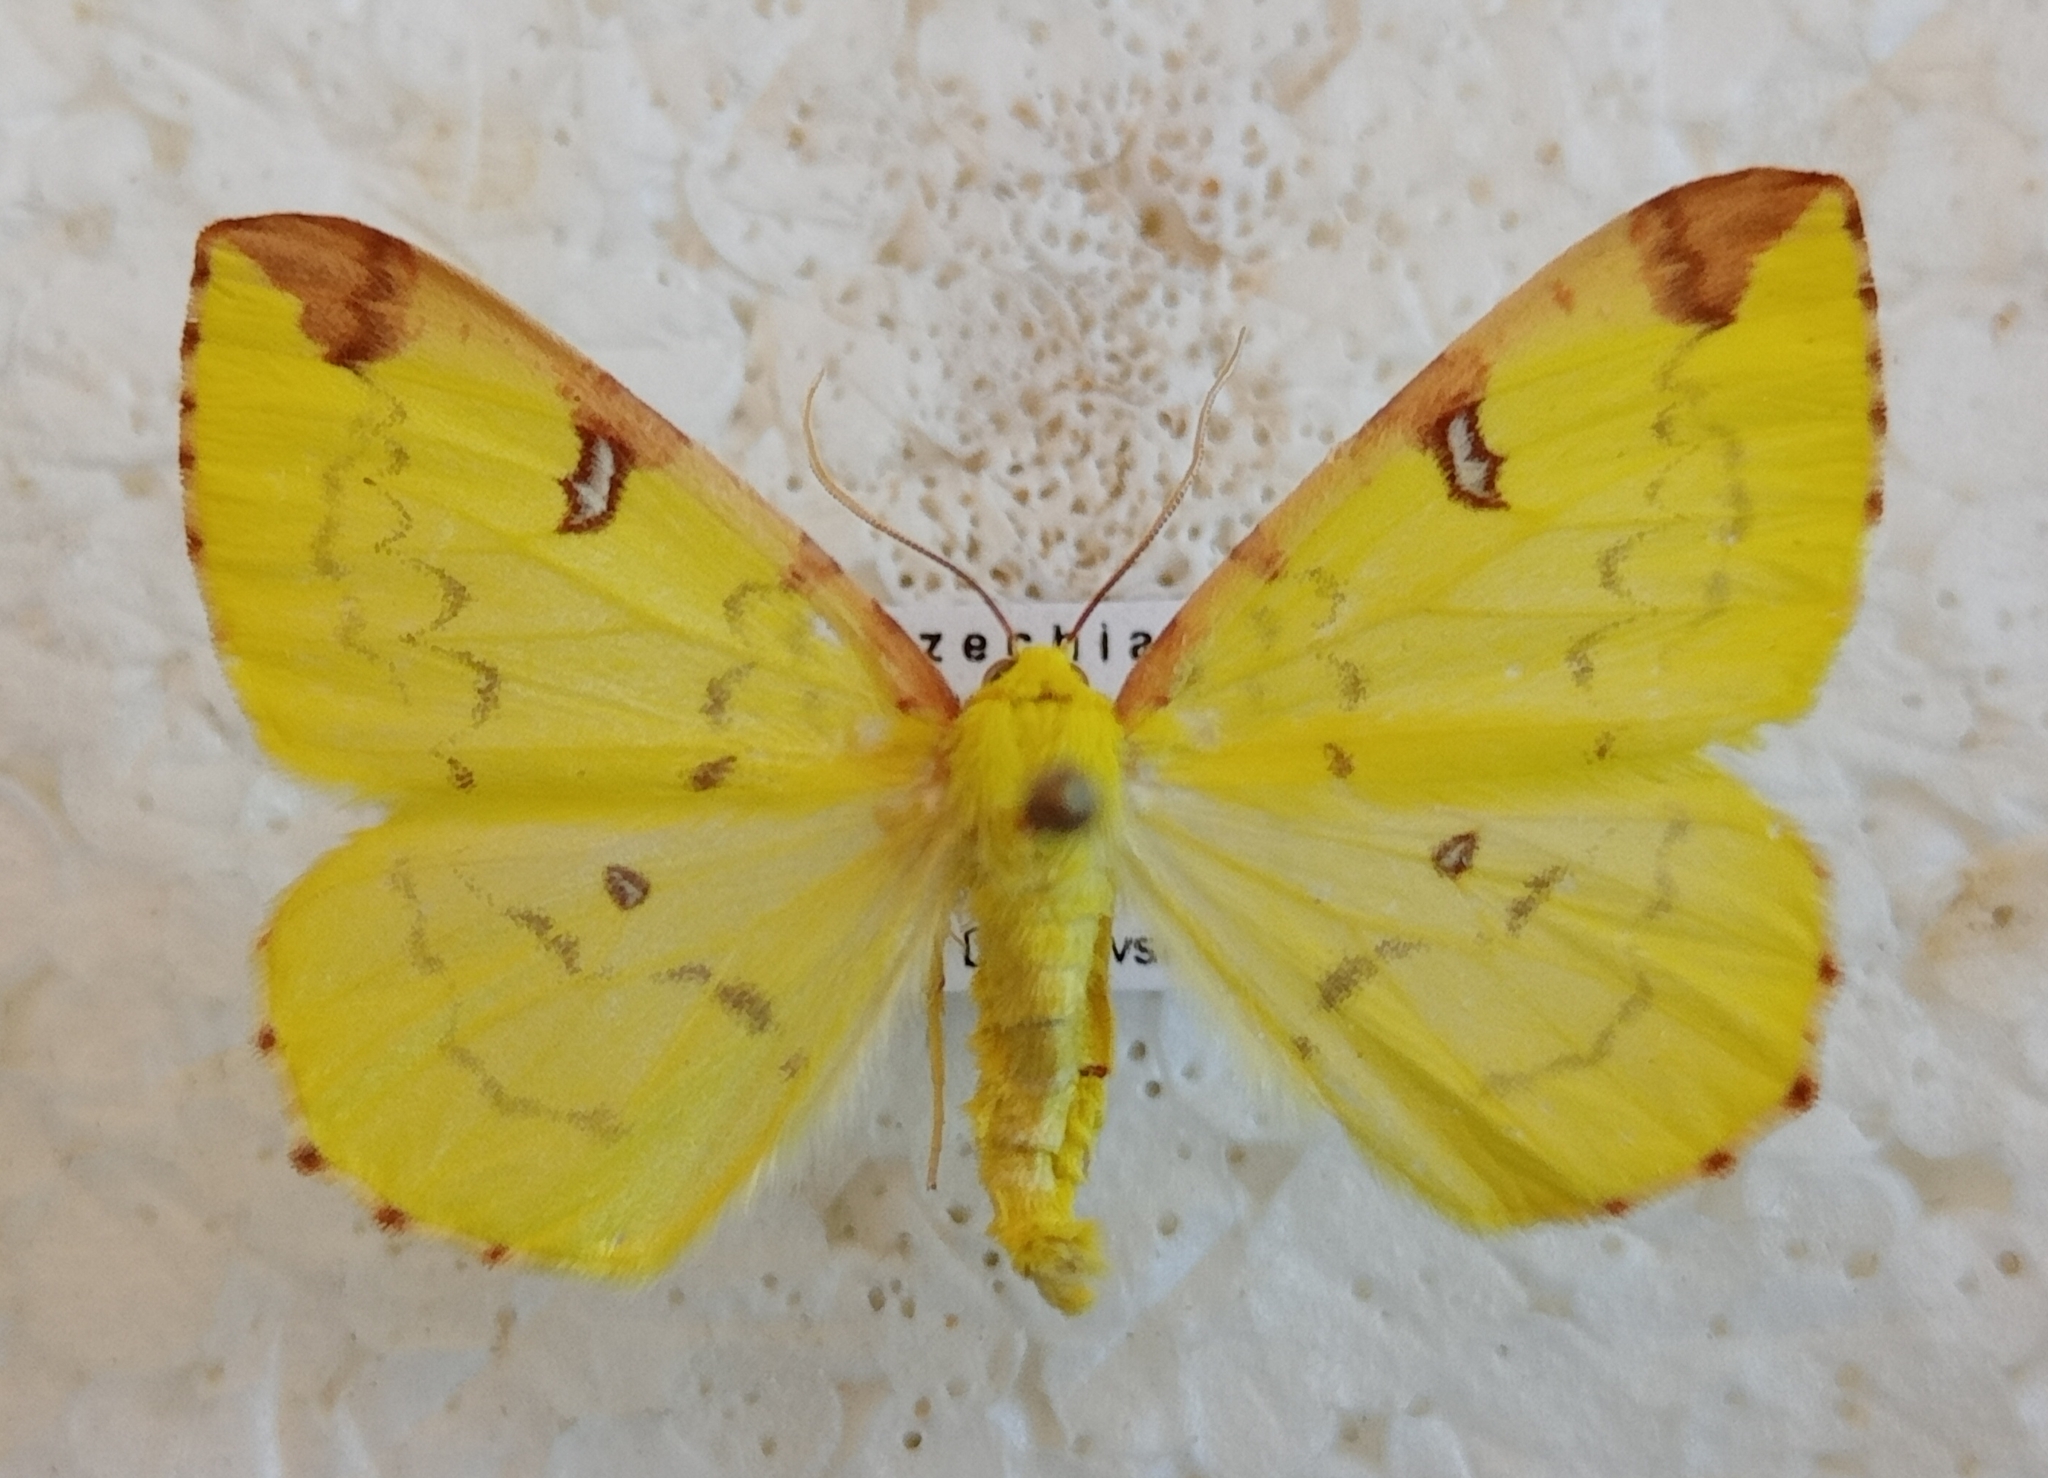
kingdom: Animalia
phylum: Arthropoda
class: Insecta
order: Lepidoptera
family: Geometridae
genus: Opisthograptis
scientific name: Opisthograptis luteolata
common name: Brimstone moth
